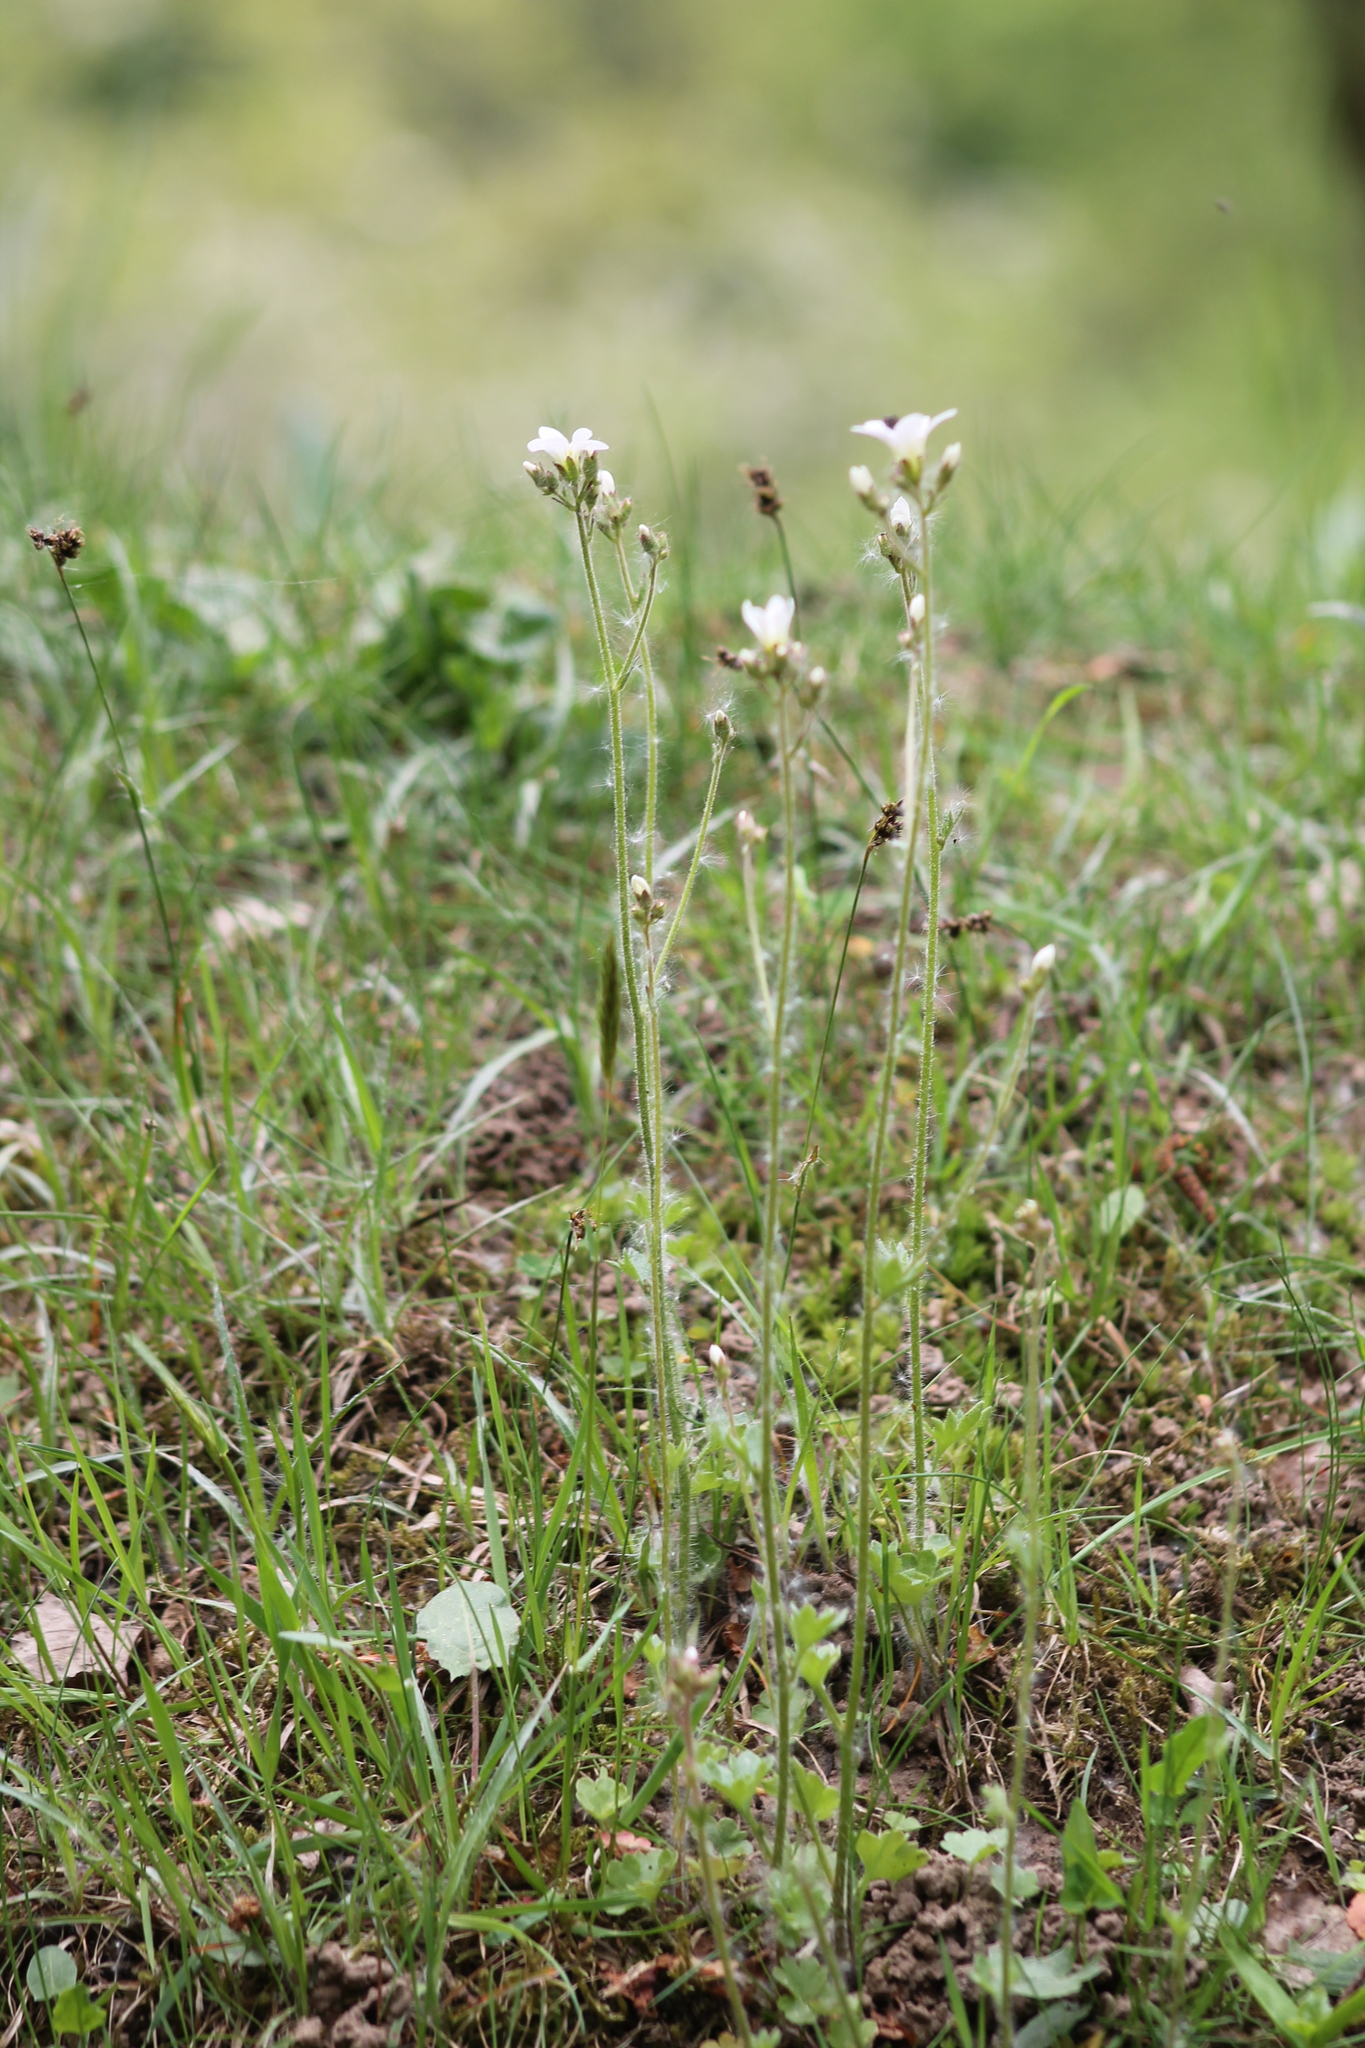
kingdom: Plantae
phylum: Tracheophyta
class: Magnoliopsida
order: Saxifragales
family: Saxifragaceae
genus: Saxifraga
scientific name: Saxifraga granulata
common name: Meadow saxifrage
